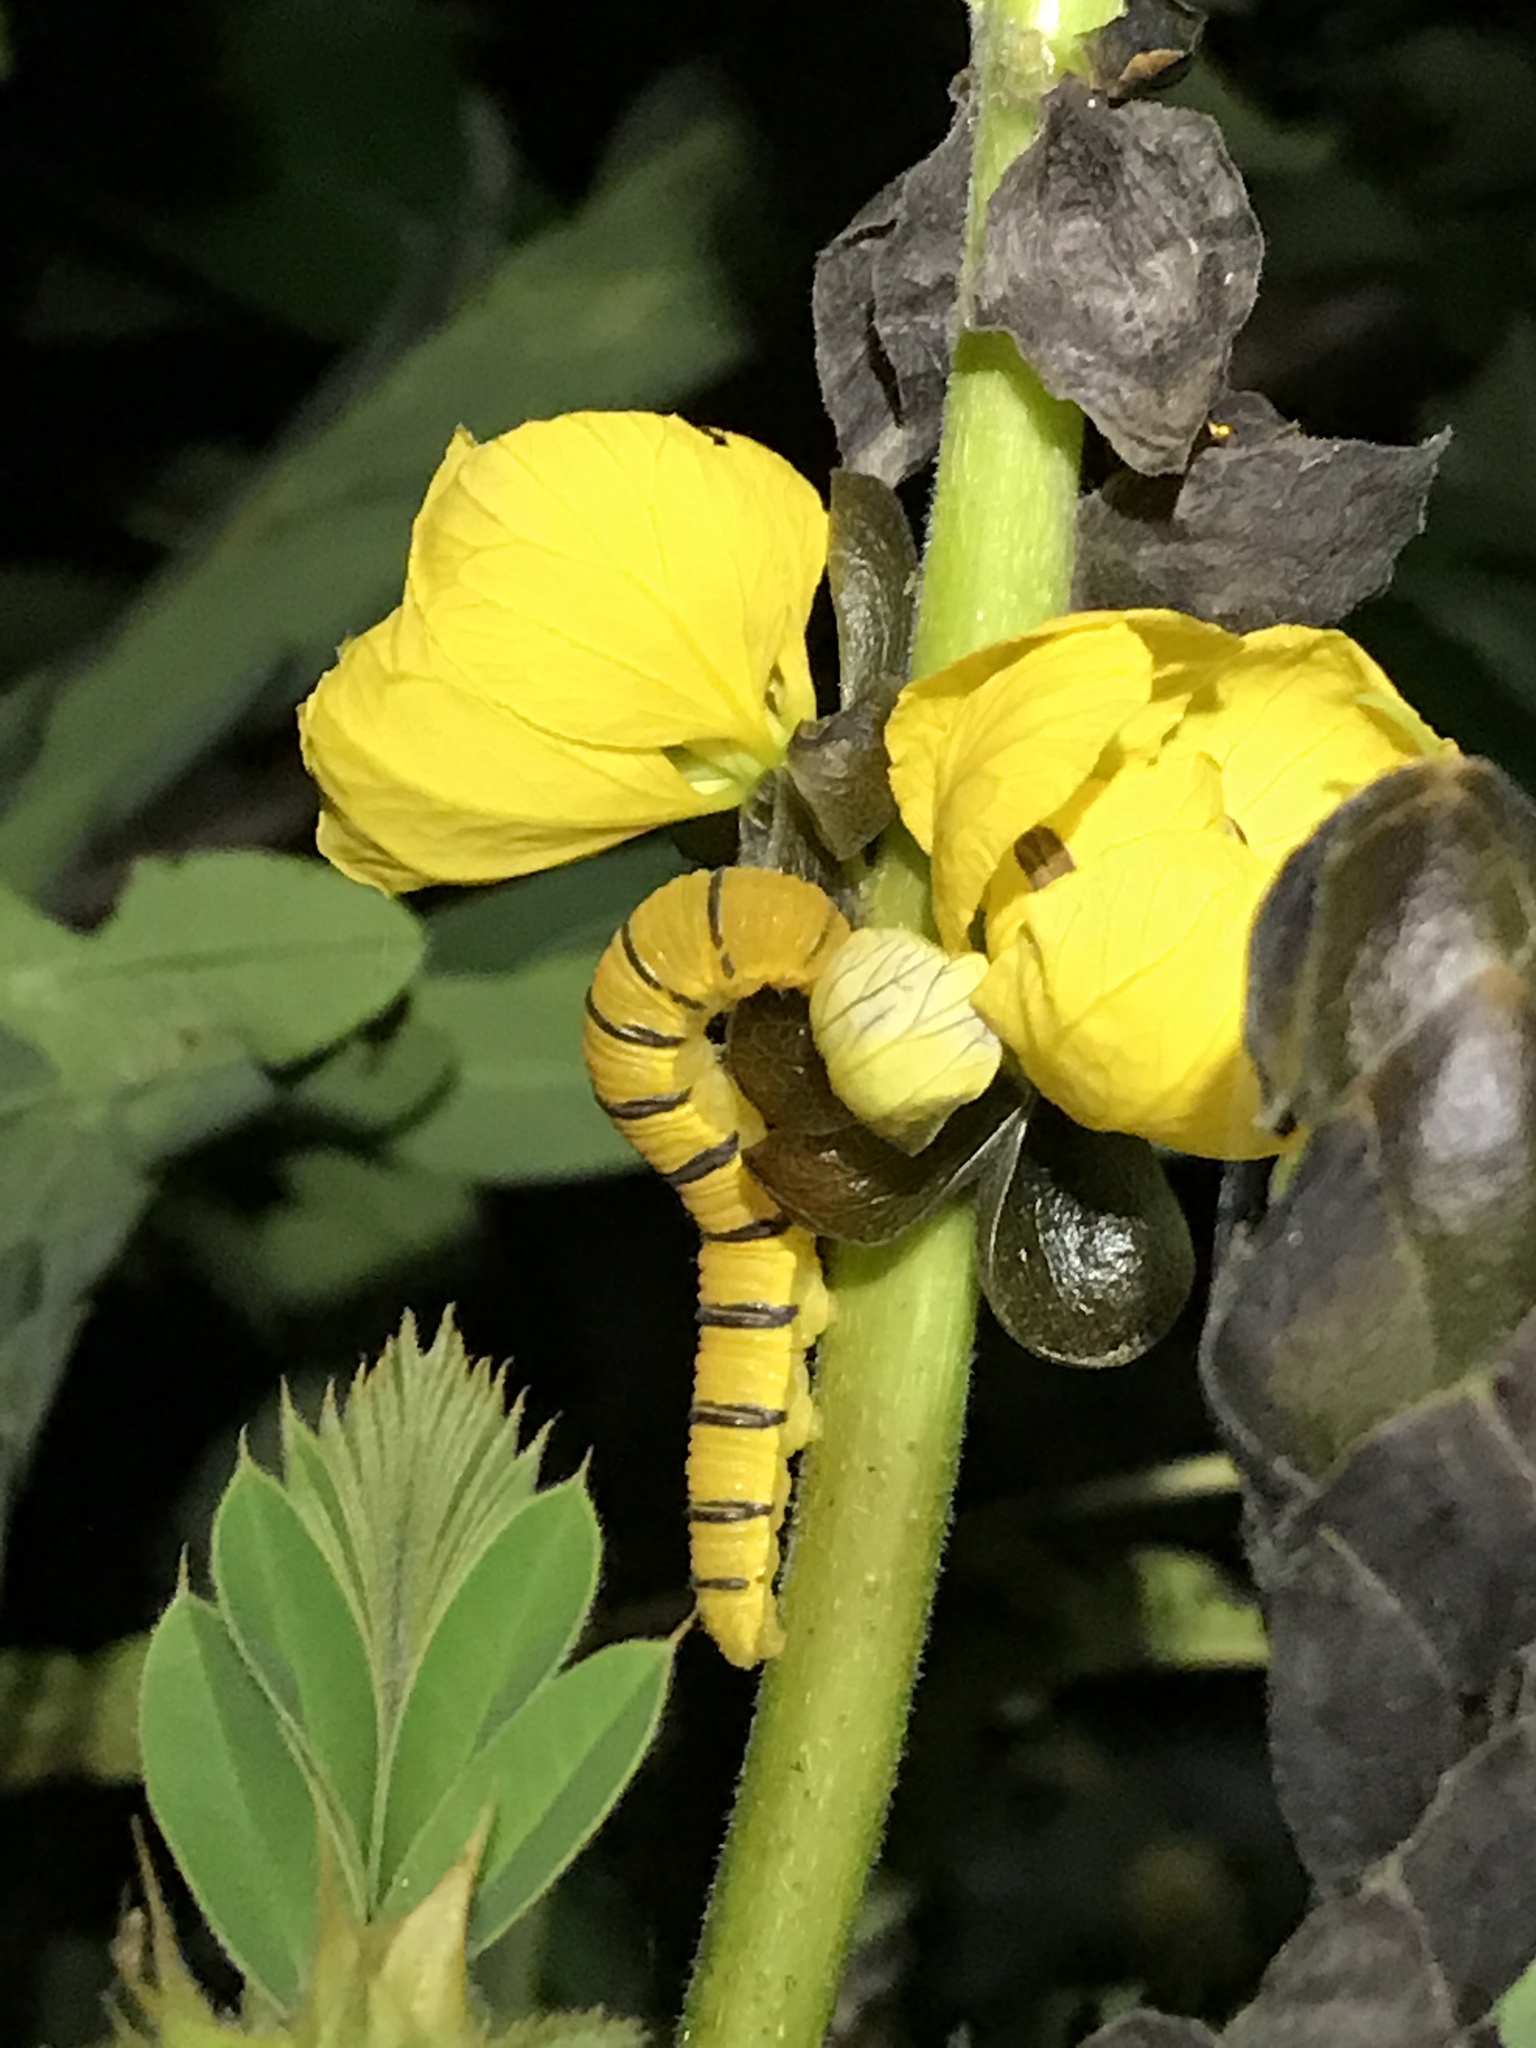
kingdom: Animalia
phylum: Arthropoda
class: Insecta
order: Lepidoptera
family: Pieridae
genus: Phoebis
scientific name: Phoebis sennae
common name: Cloudless sulphur
